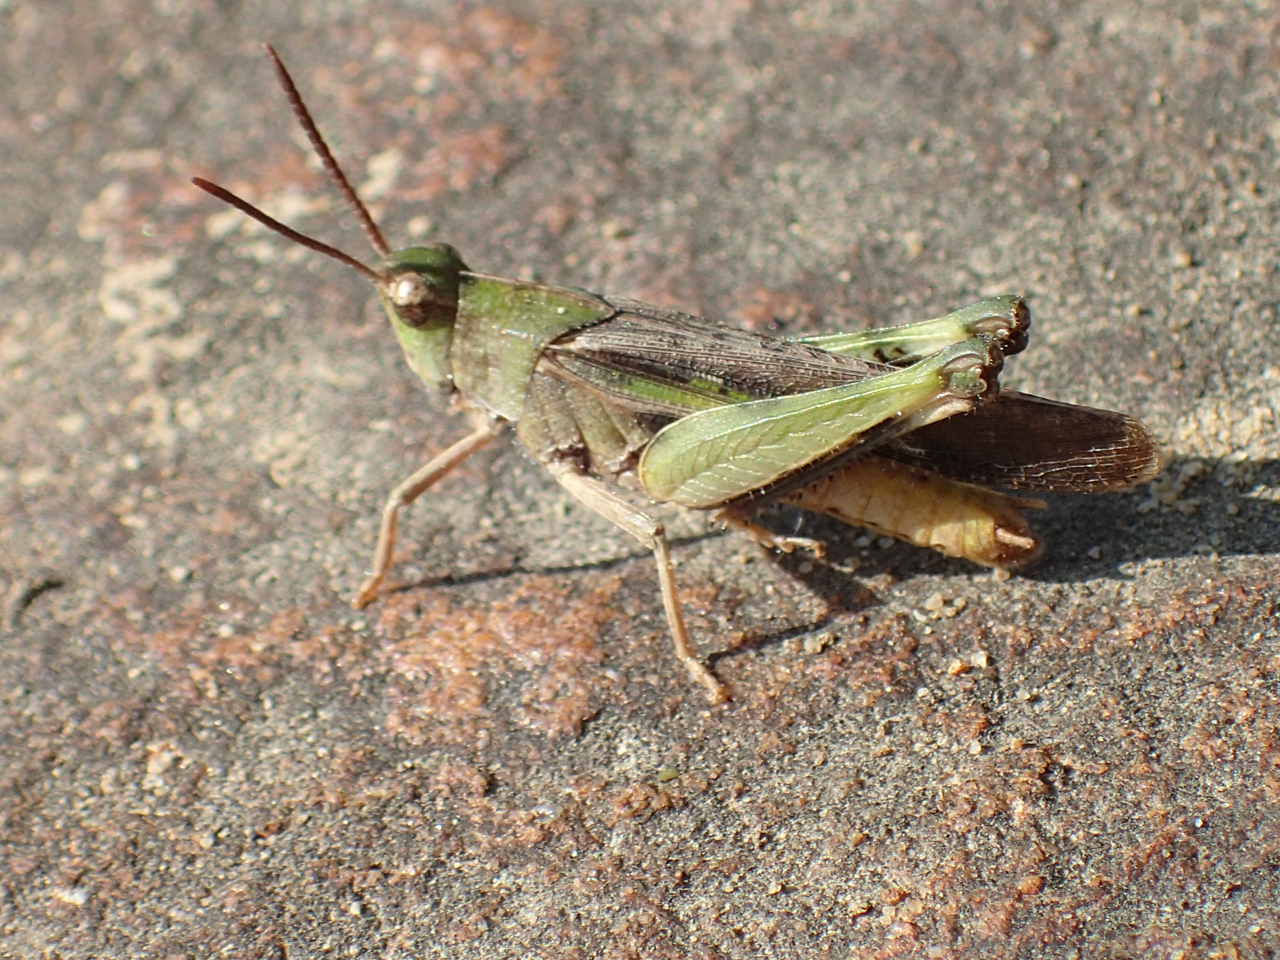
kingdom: Animalia
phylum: Arthropoda
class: Insecta
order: Orthoptera
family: Acrididae
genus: Chortophaga
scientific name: Chortophaga viridifasciata
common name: Green-striped grasshopper
